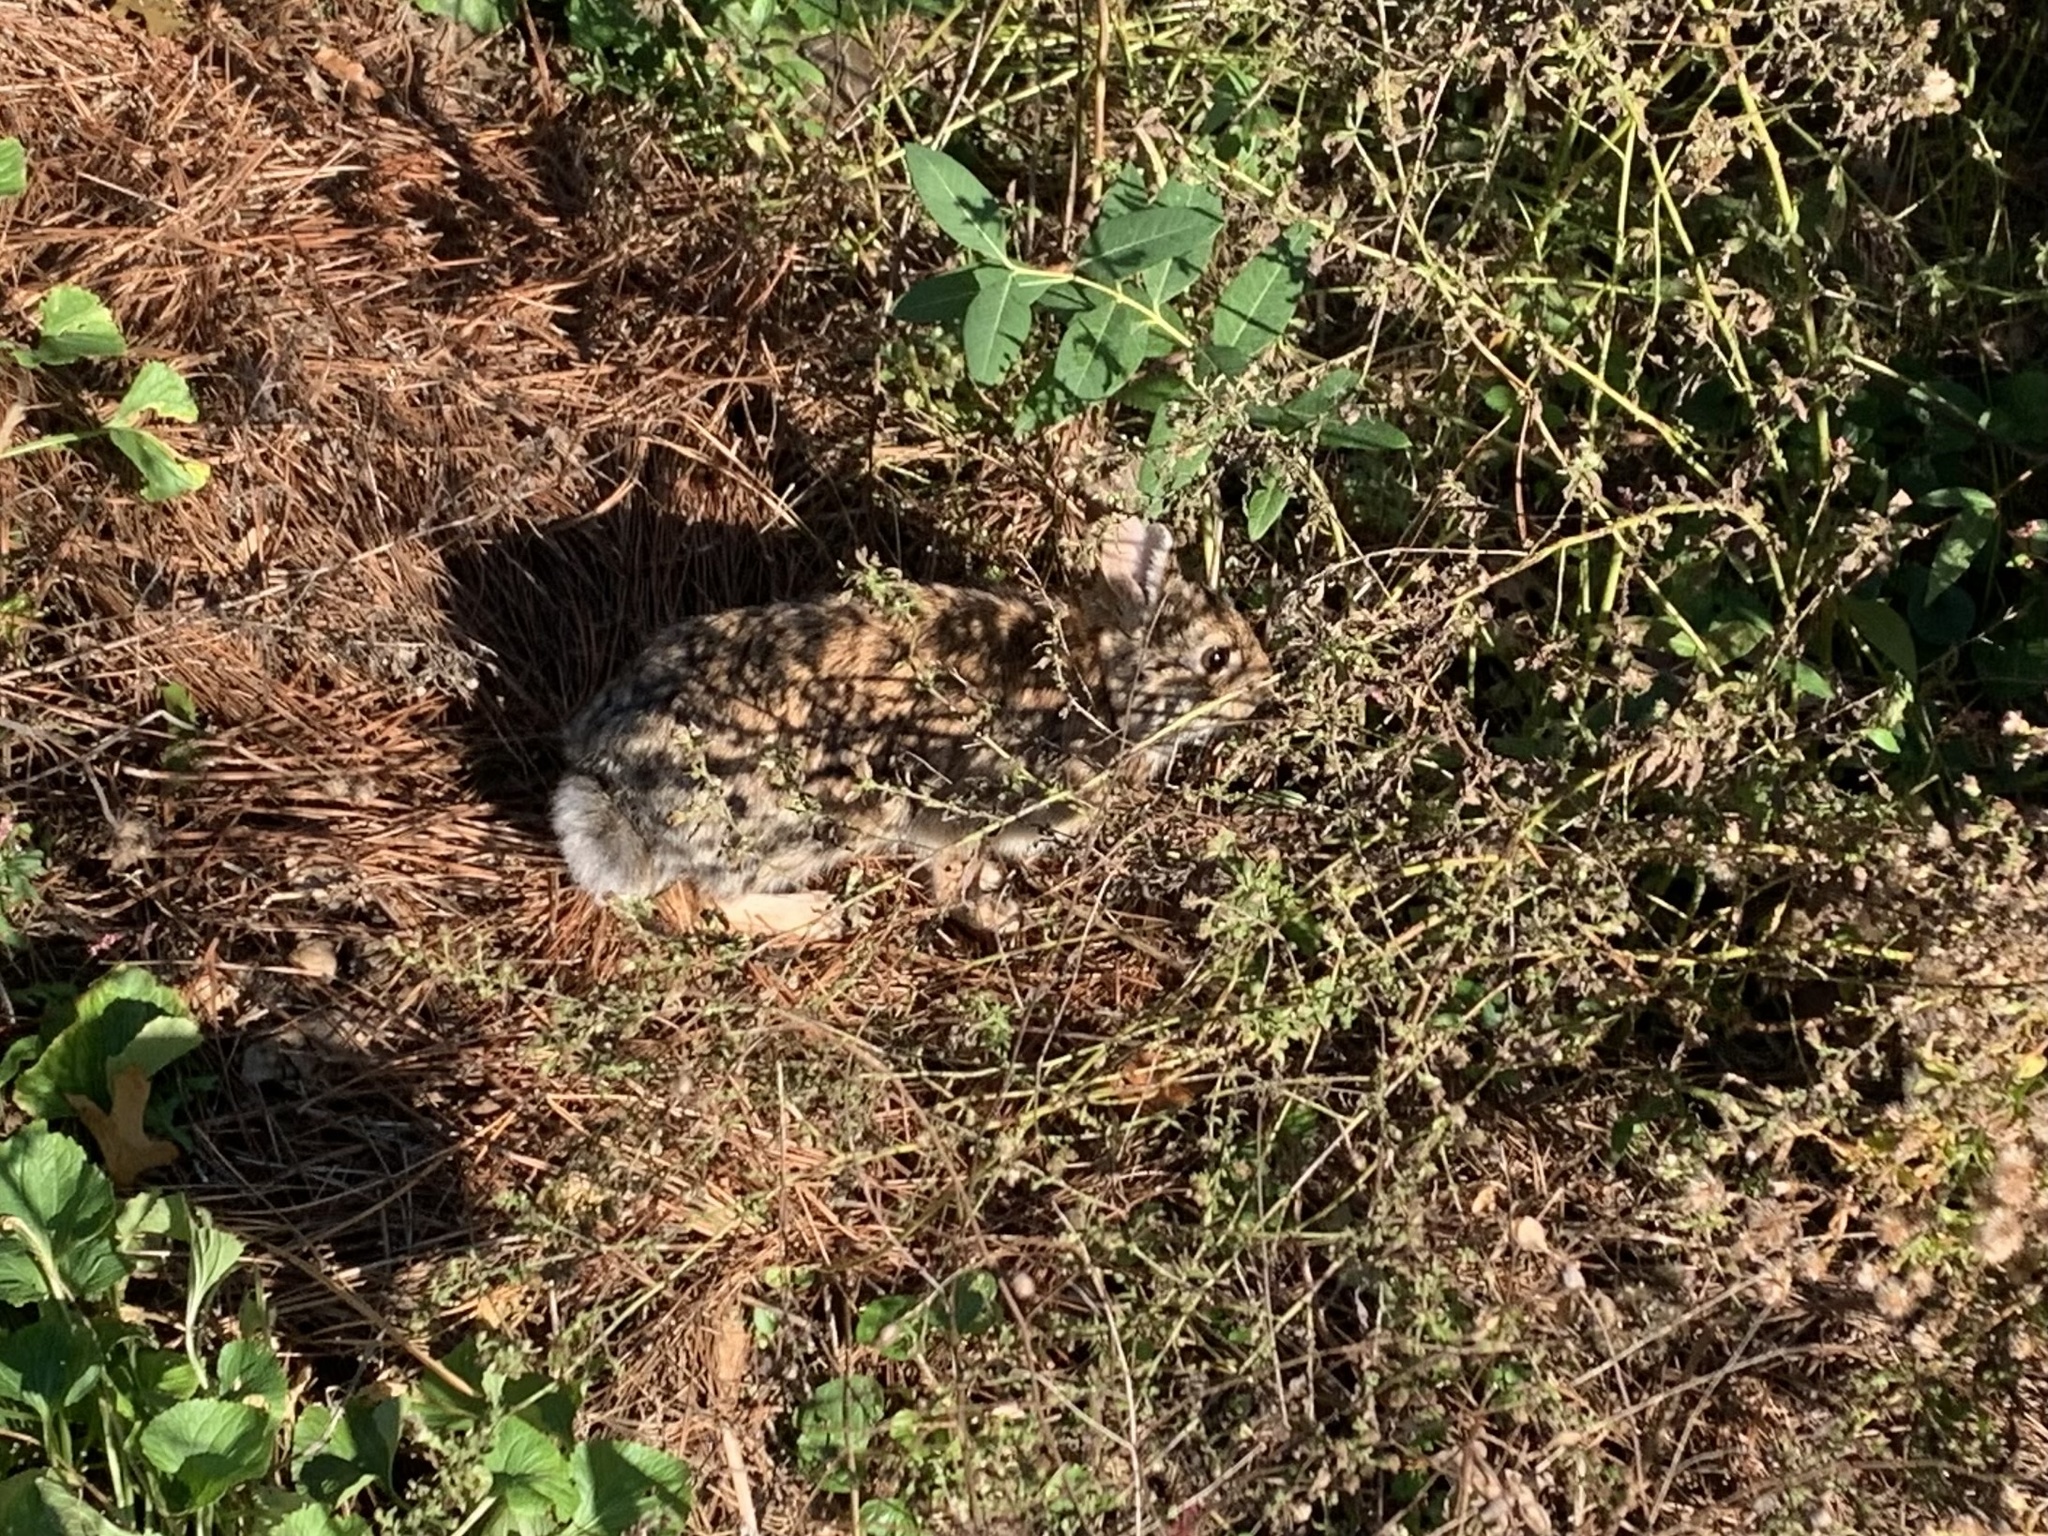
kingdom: Animalia
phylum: Chordata
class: Mammalia
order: Lagomorpha
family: Leporidae
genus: Sylvilagus
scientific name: Sylvilagus floridanus
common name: Eastern cottontail
